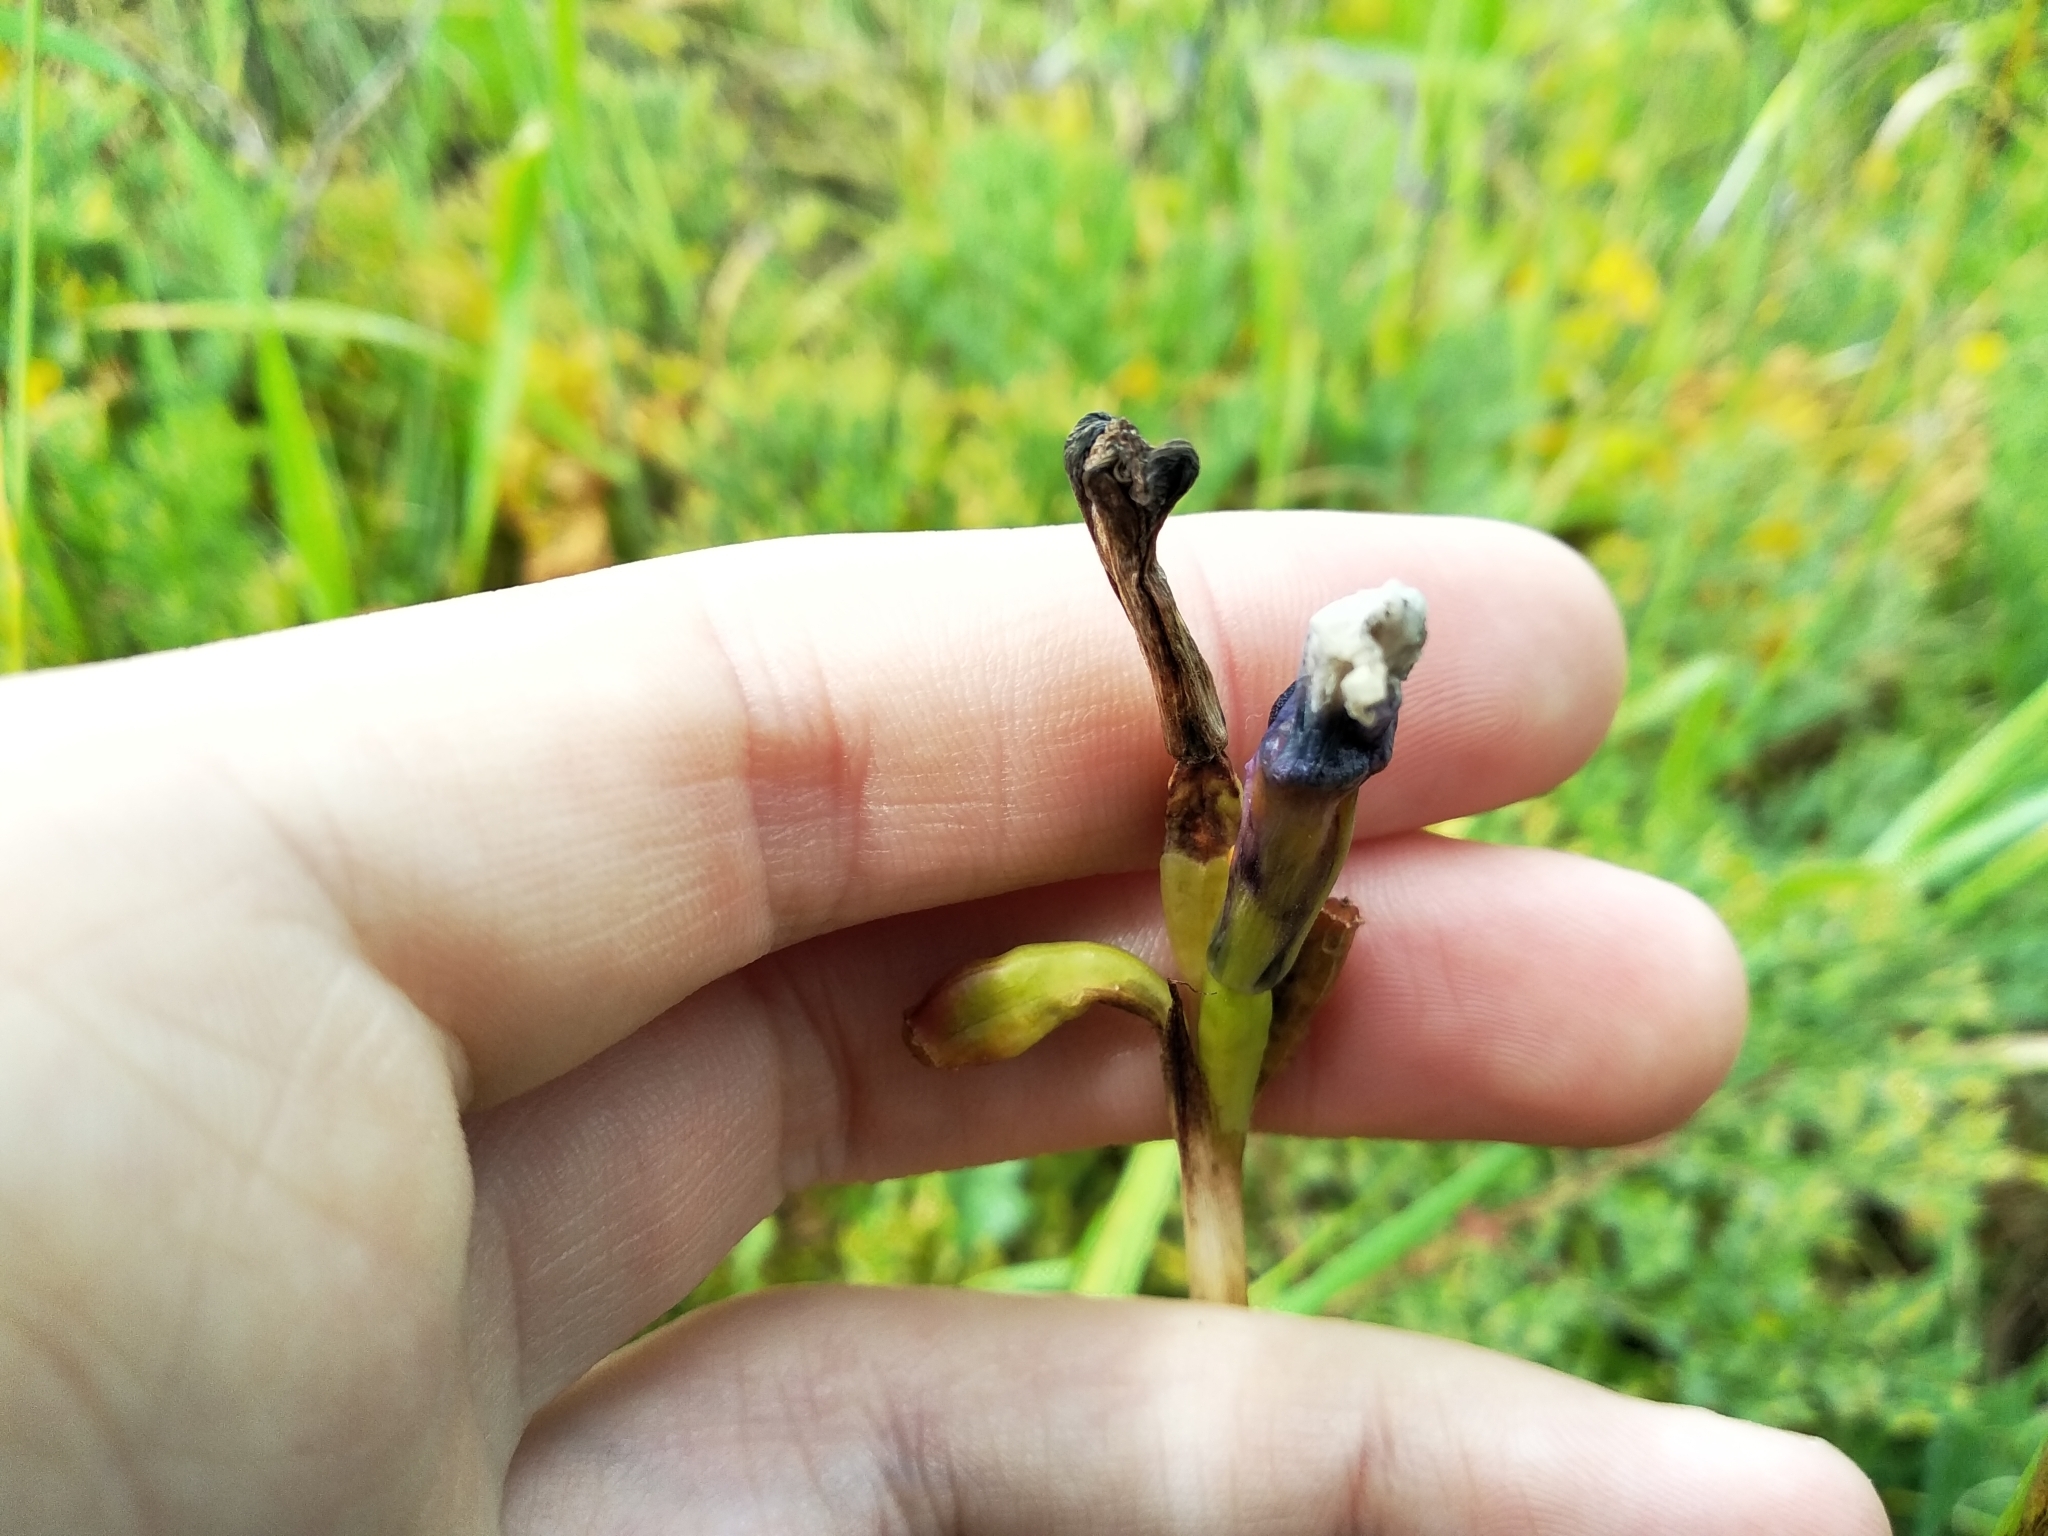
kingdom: Plantae
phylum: Tracheophyta
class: Liliopsida
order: Asparagales
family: Iridaceae
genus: Moraea
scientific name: Moraea aristata
